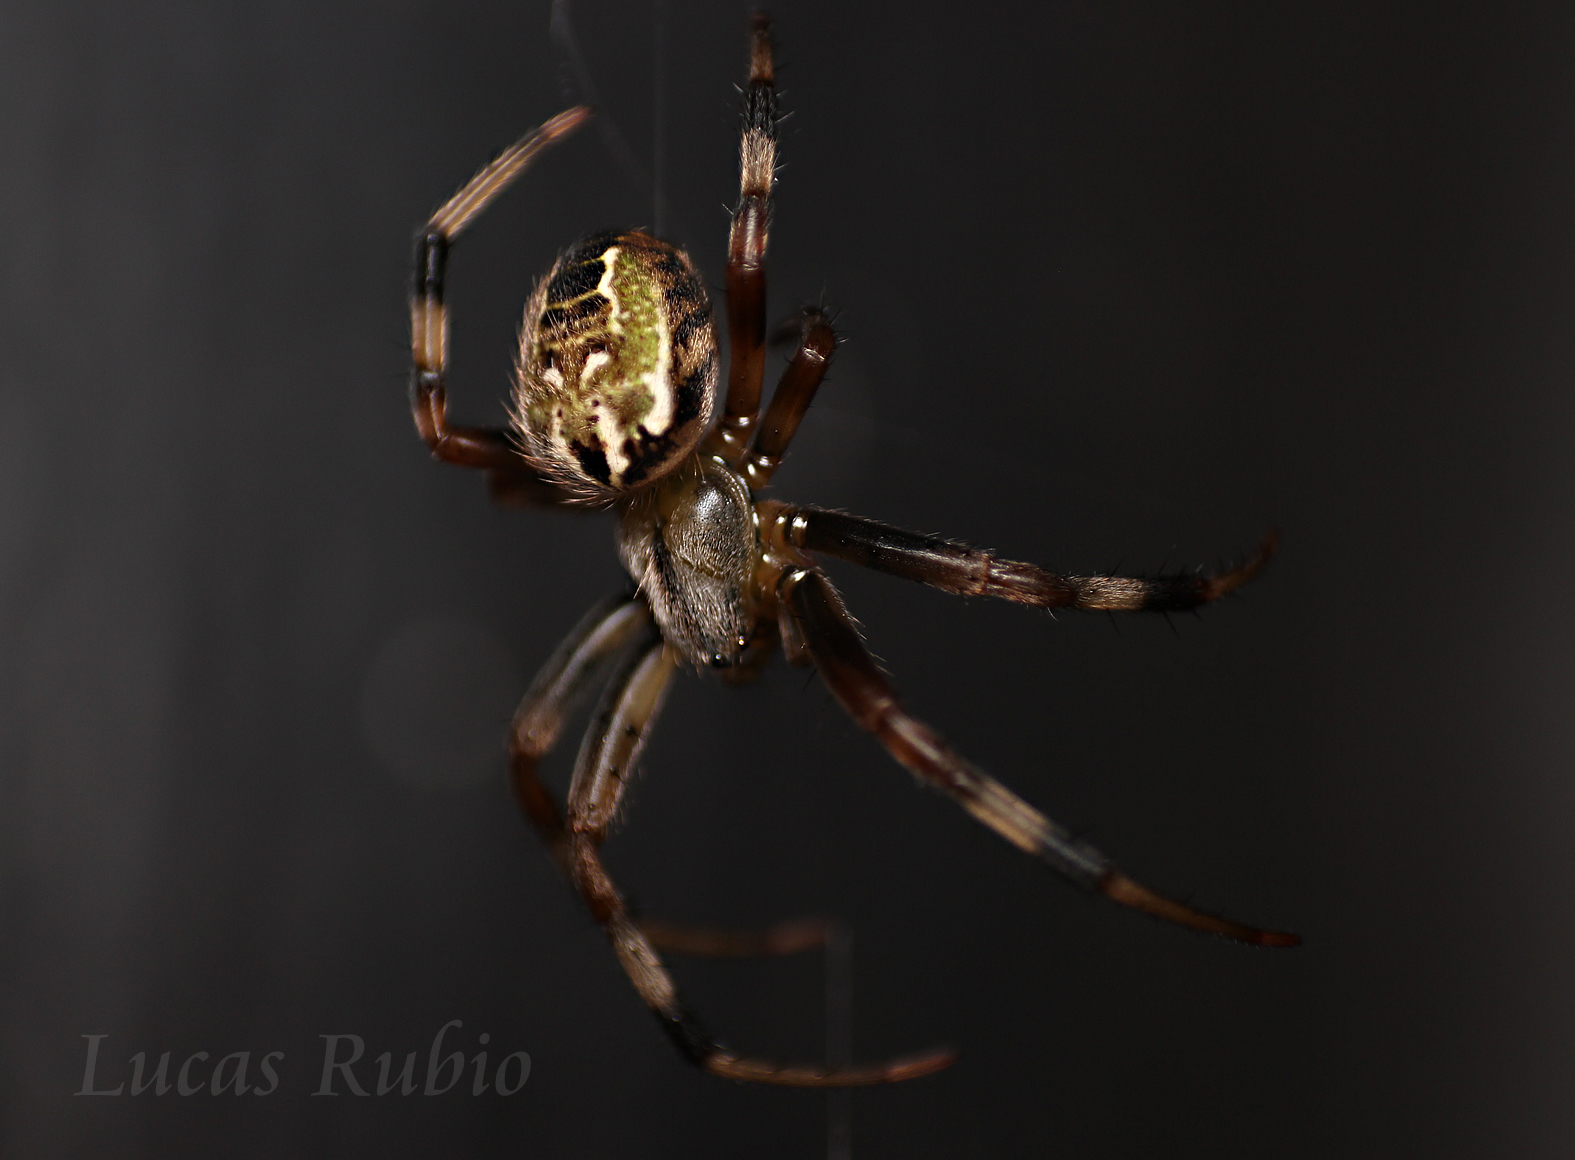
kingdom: Animalia
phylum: Arthropoda
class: Arachnida
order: Araneae
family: Araneidae
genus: Araneus
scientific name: Araneus venatrix
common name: Orb weavers
